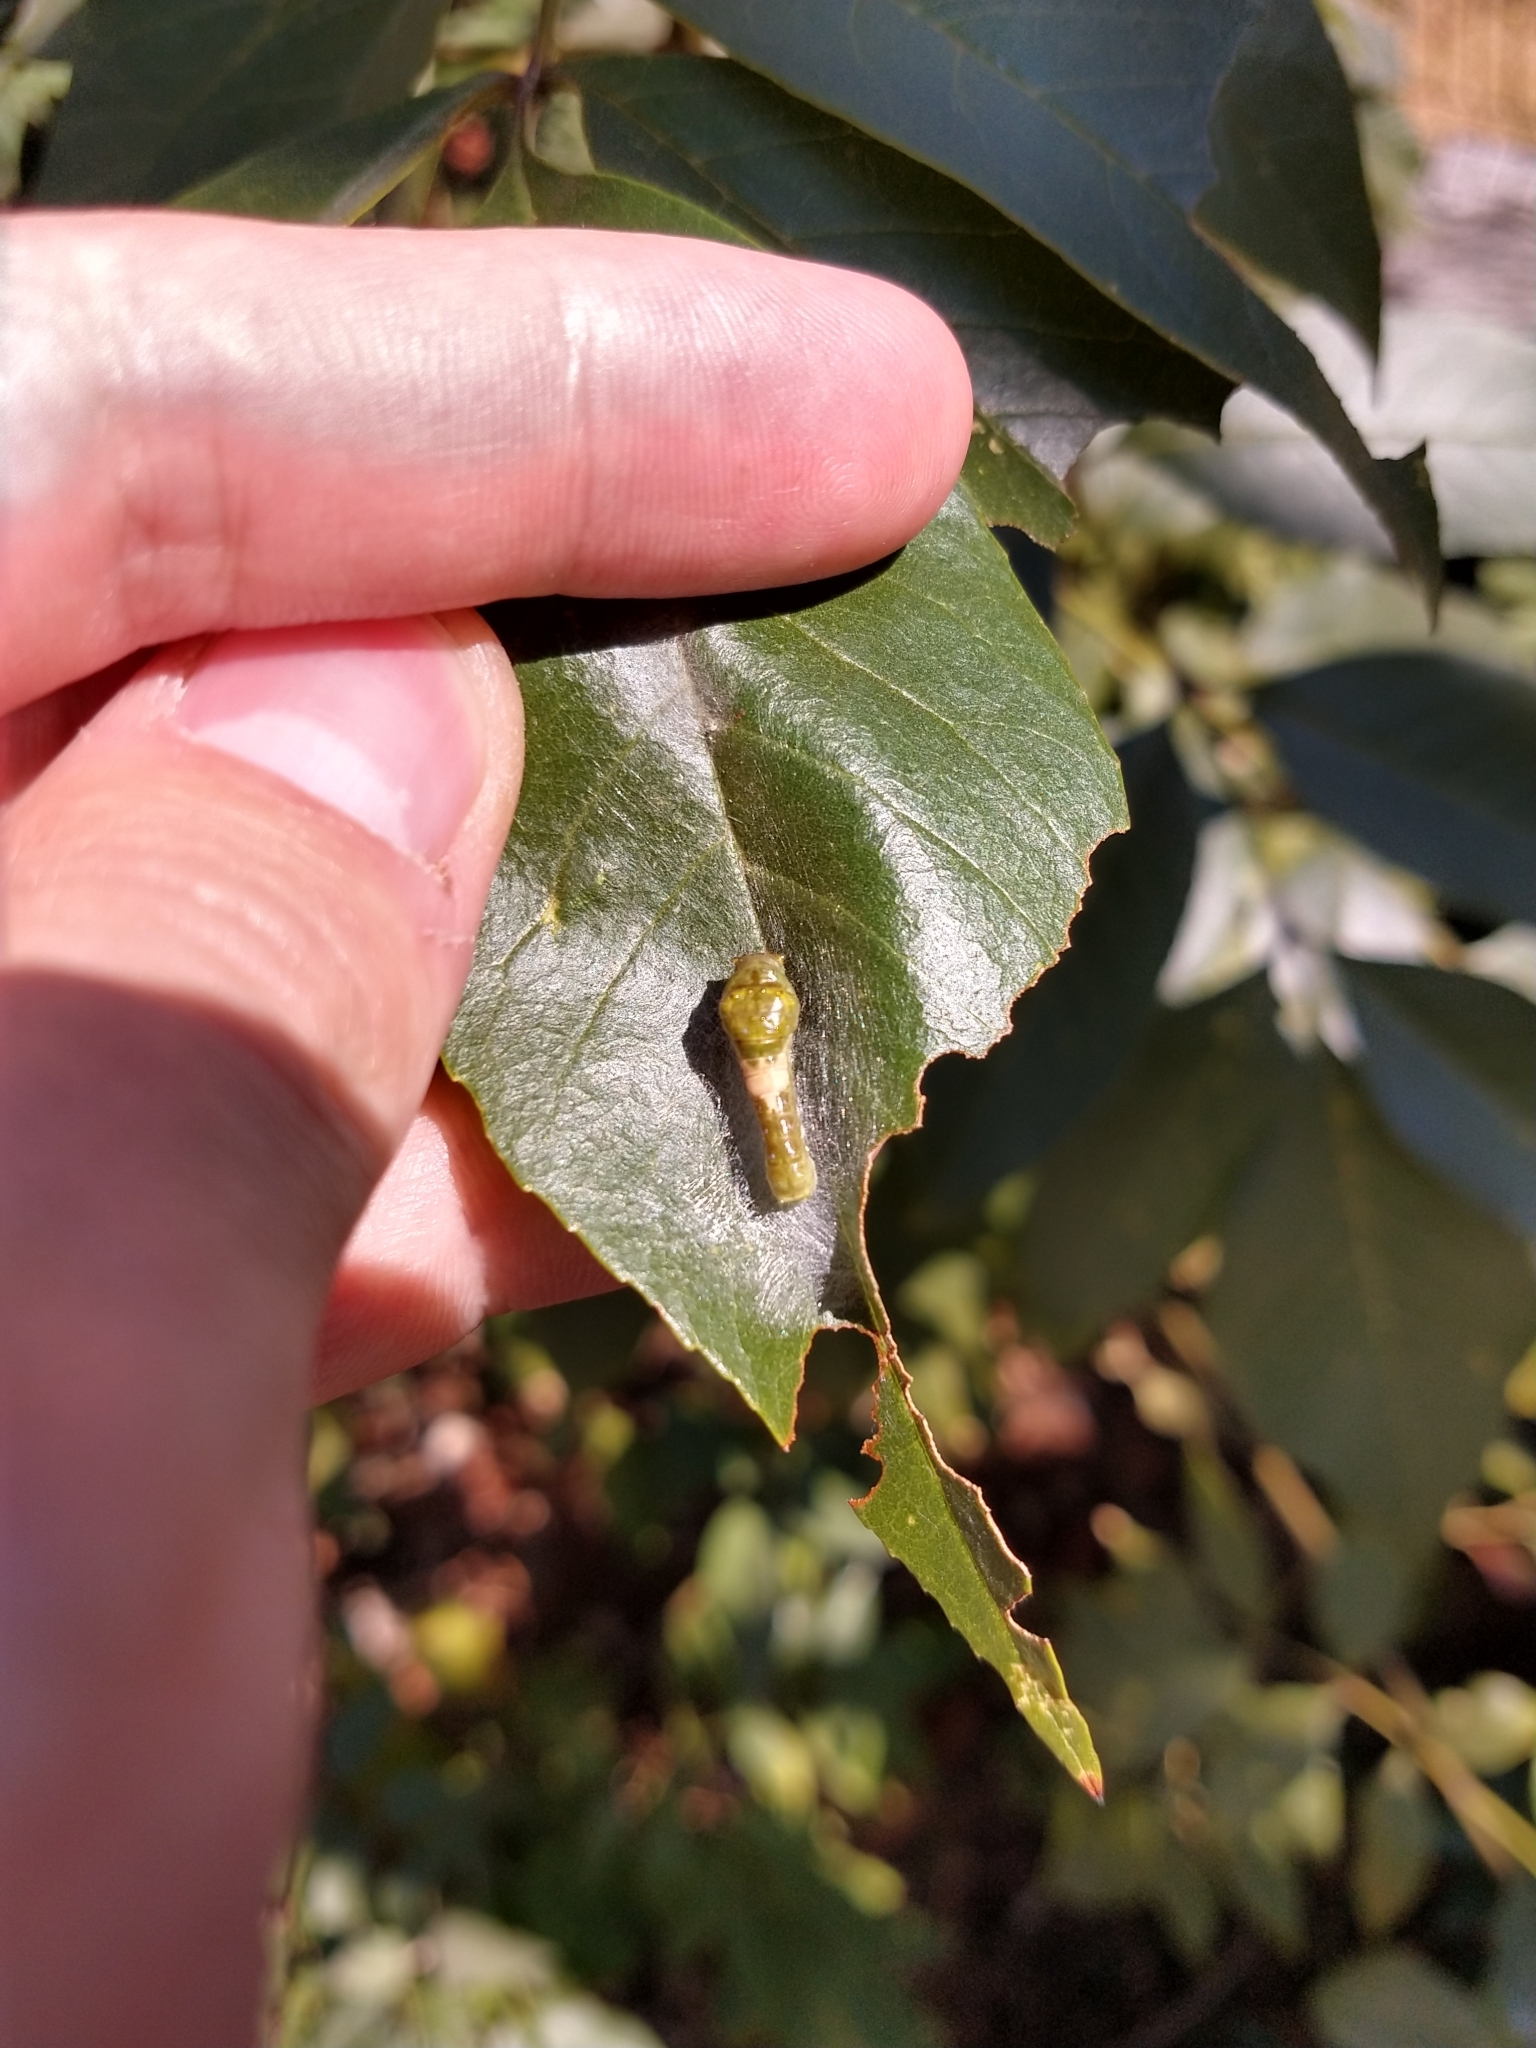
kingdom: Animalia
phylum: Arthropoda
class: Insecta
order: Lepidoptera
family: Papilionidae
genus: Papilio
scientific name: Papilio multicaudata
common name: Two-tailed tiger swallowtail
